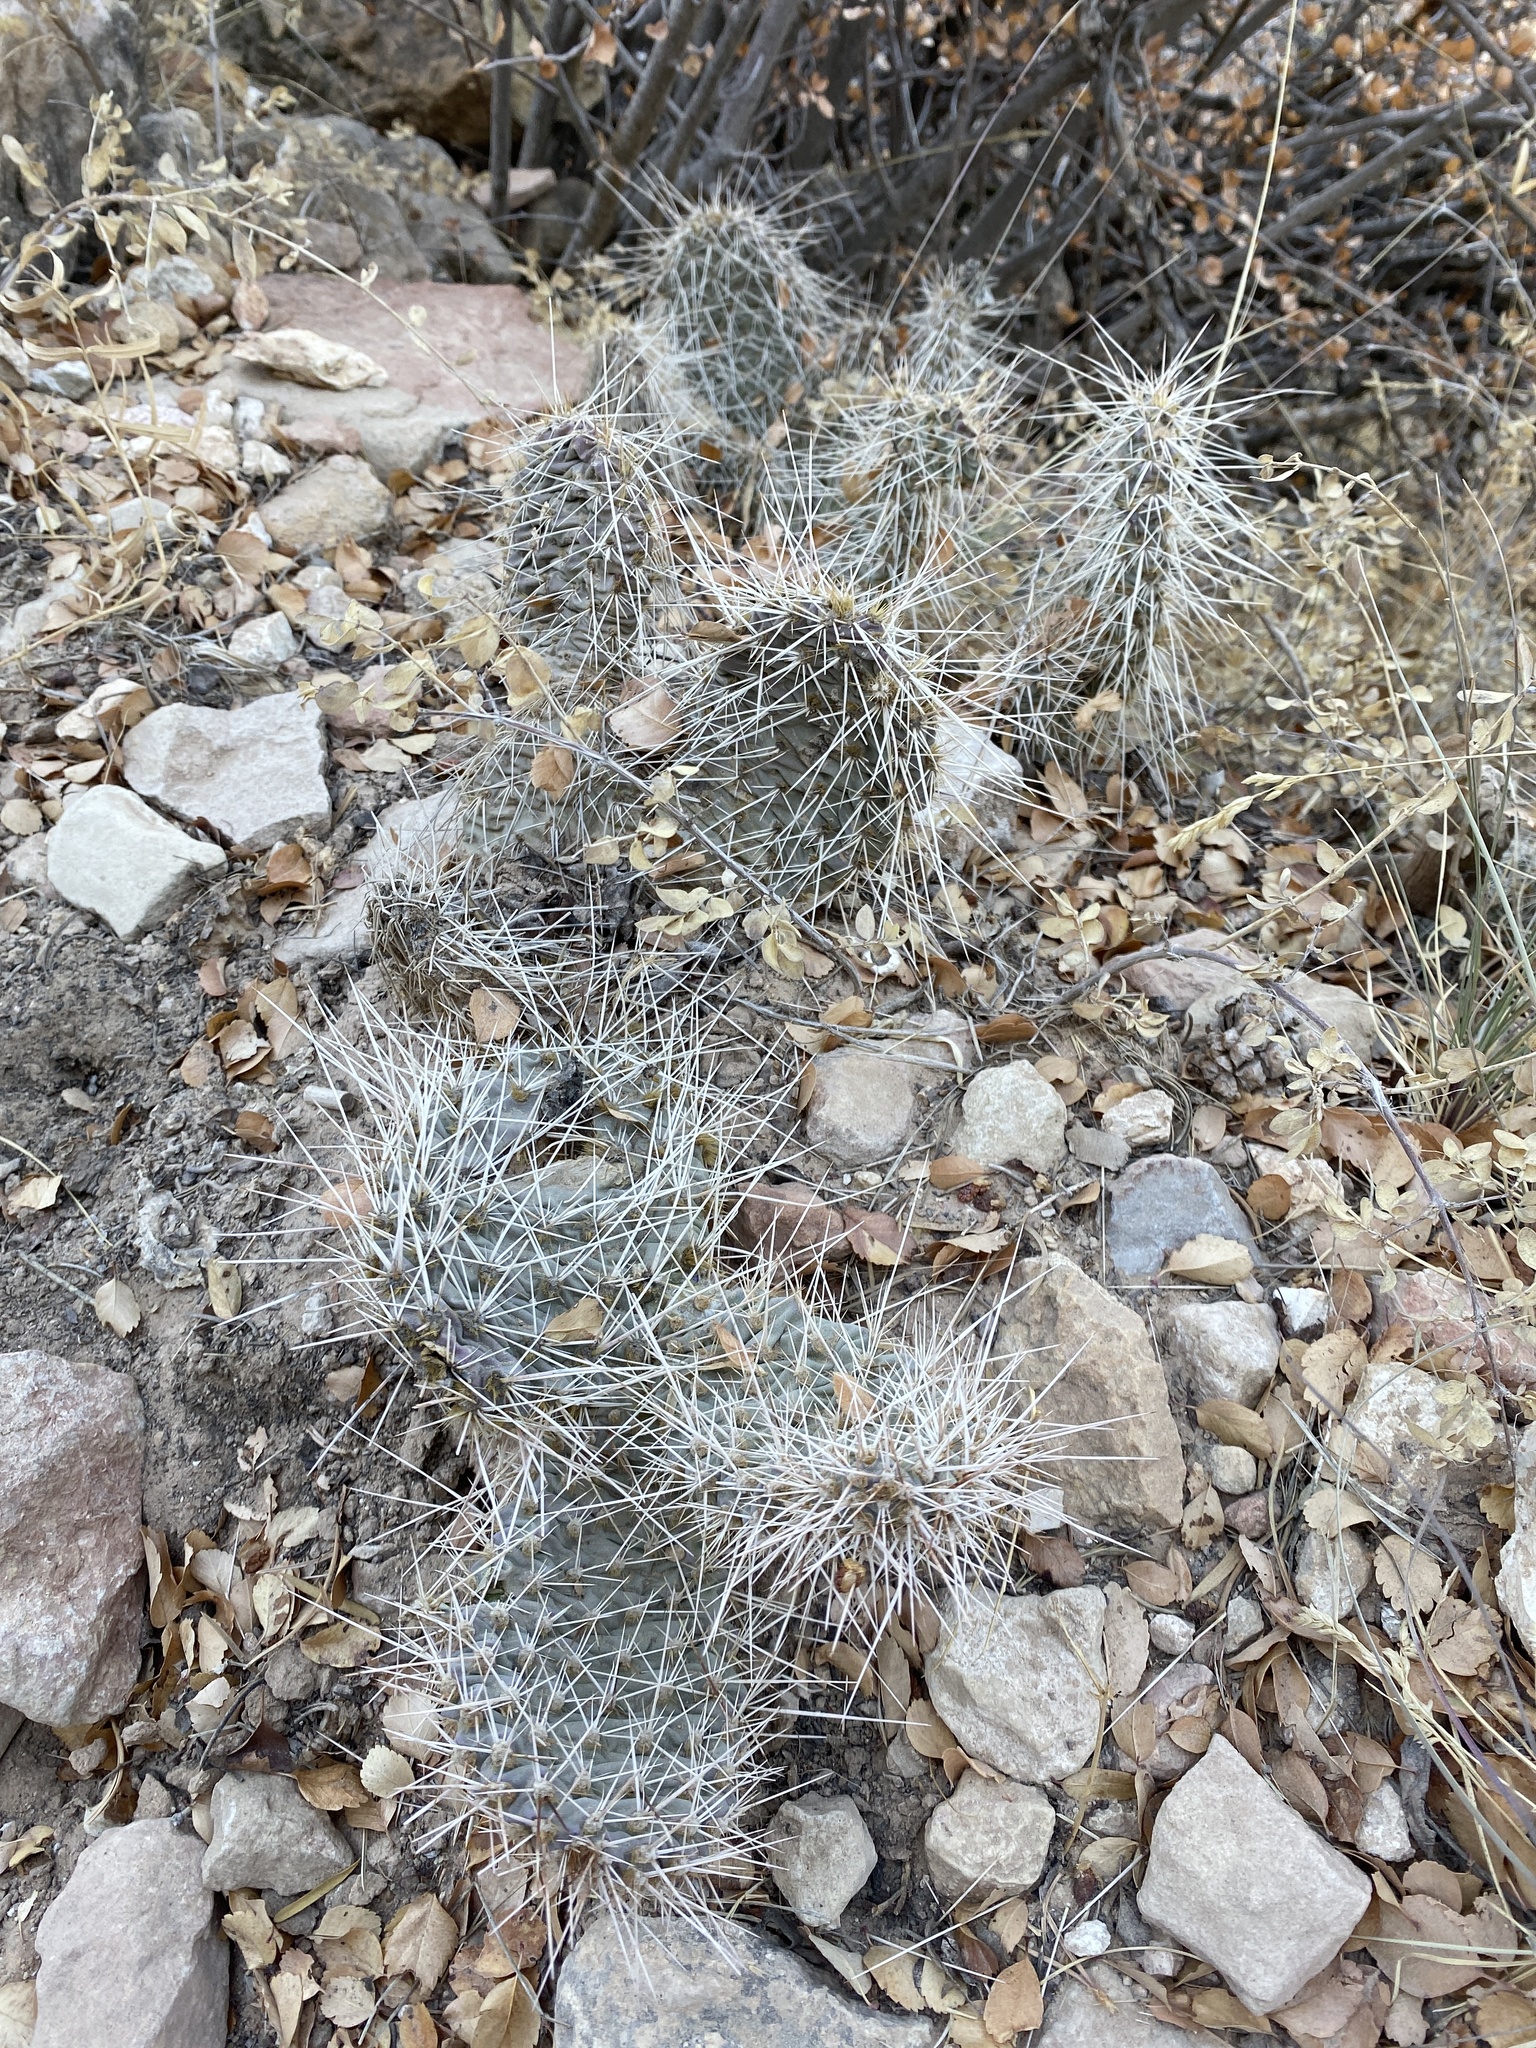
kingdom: Plantae
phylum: Tracheophyta
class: Magnoliopsida
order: Caryophyllales
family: Cactaceae
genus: Opuntia
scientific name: Opuntia polyacantha
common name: Plains prickly-pear
